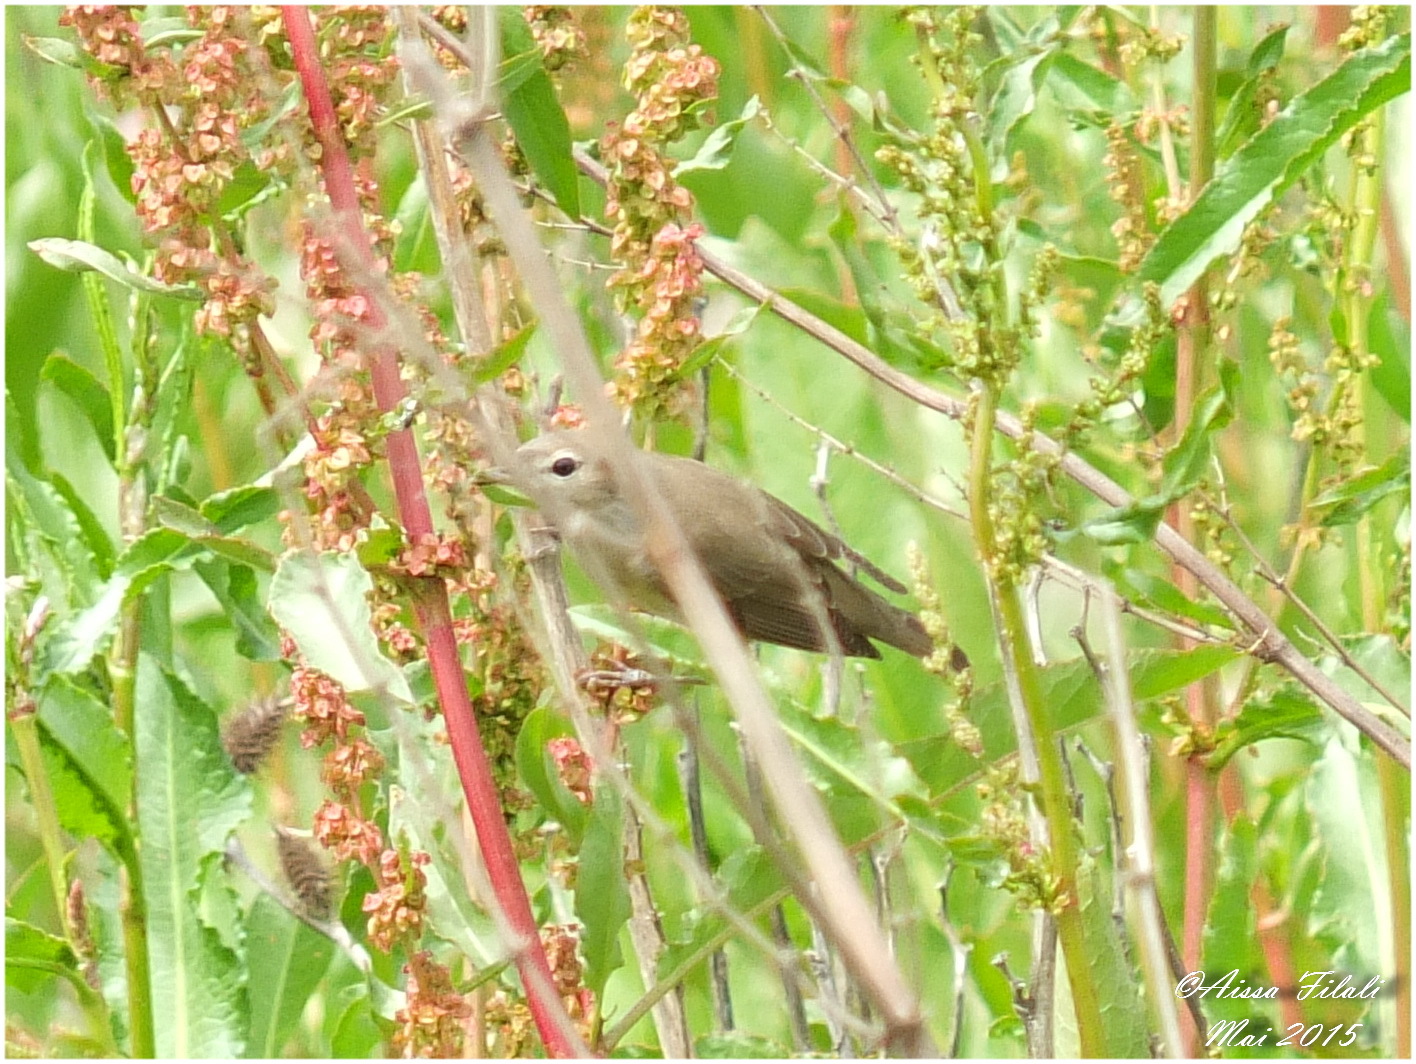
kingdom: Animalia
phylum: Chordata
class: Aves
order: Passeriformes
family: Sylviidae
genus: Sylvia
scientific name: Sylvia borin
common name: Garden warbler
